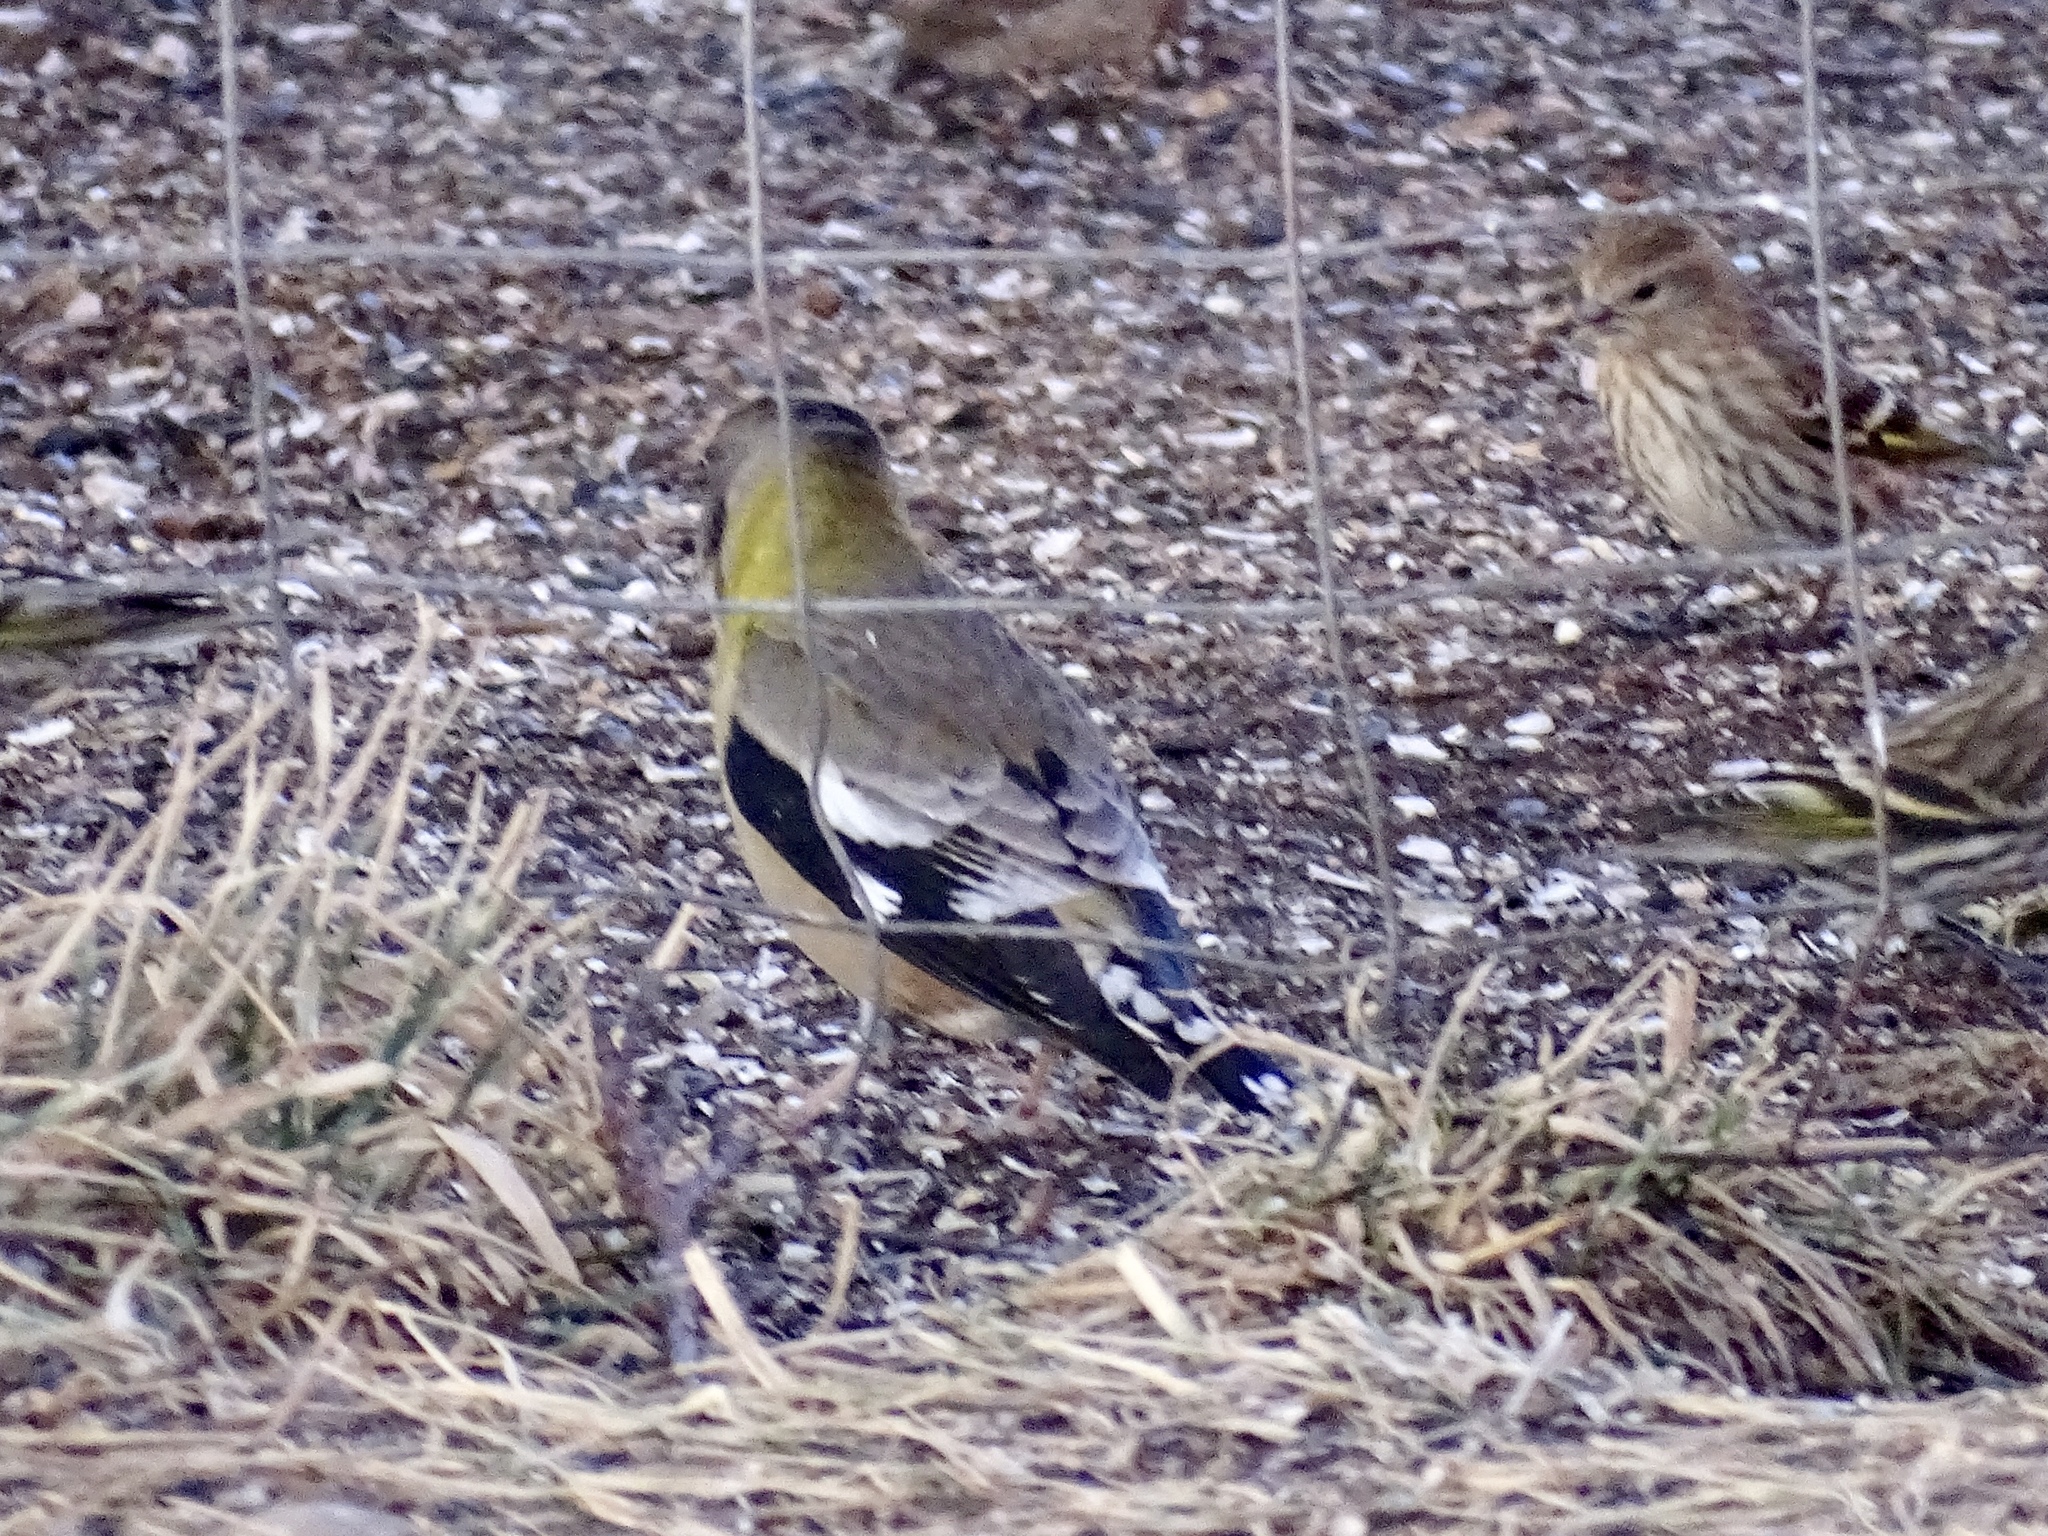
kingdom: Animalia
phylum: Chordata
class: Aves
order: Passeriformes
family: Fringillidae
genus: Hesperiphona
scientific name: Hesperiphona vespertina
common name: Evening grosbeak
